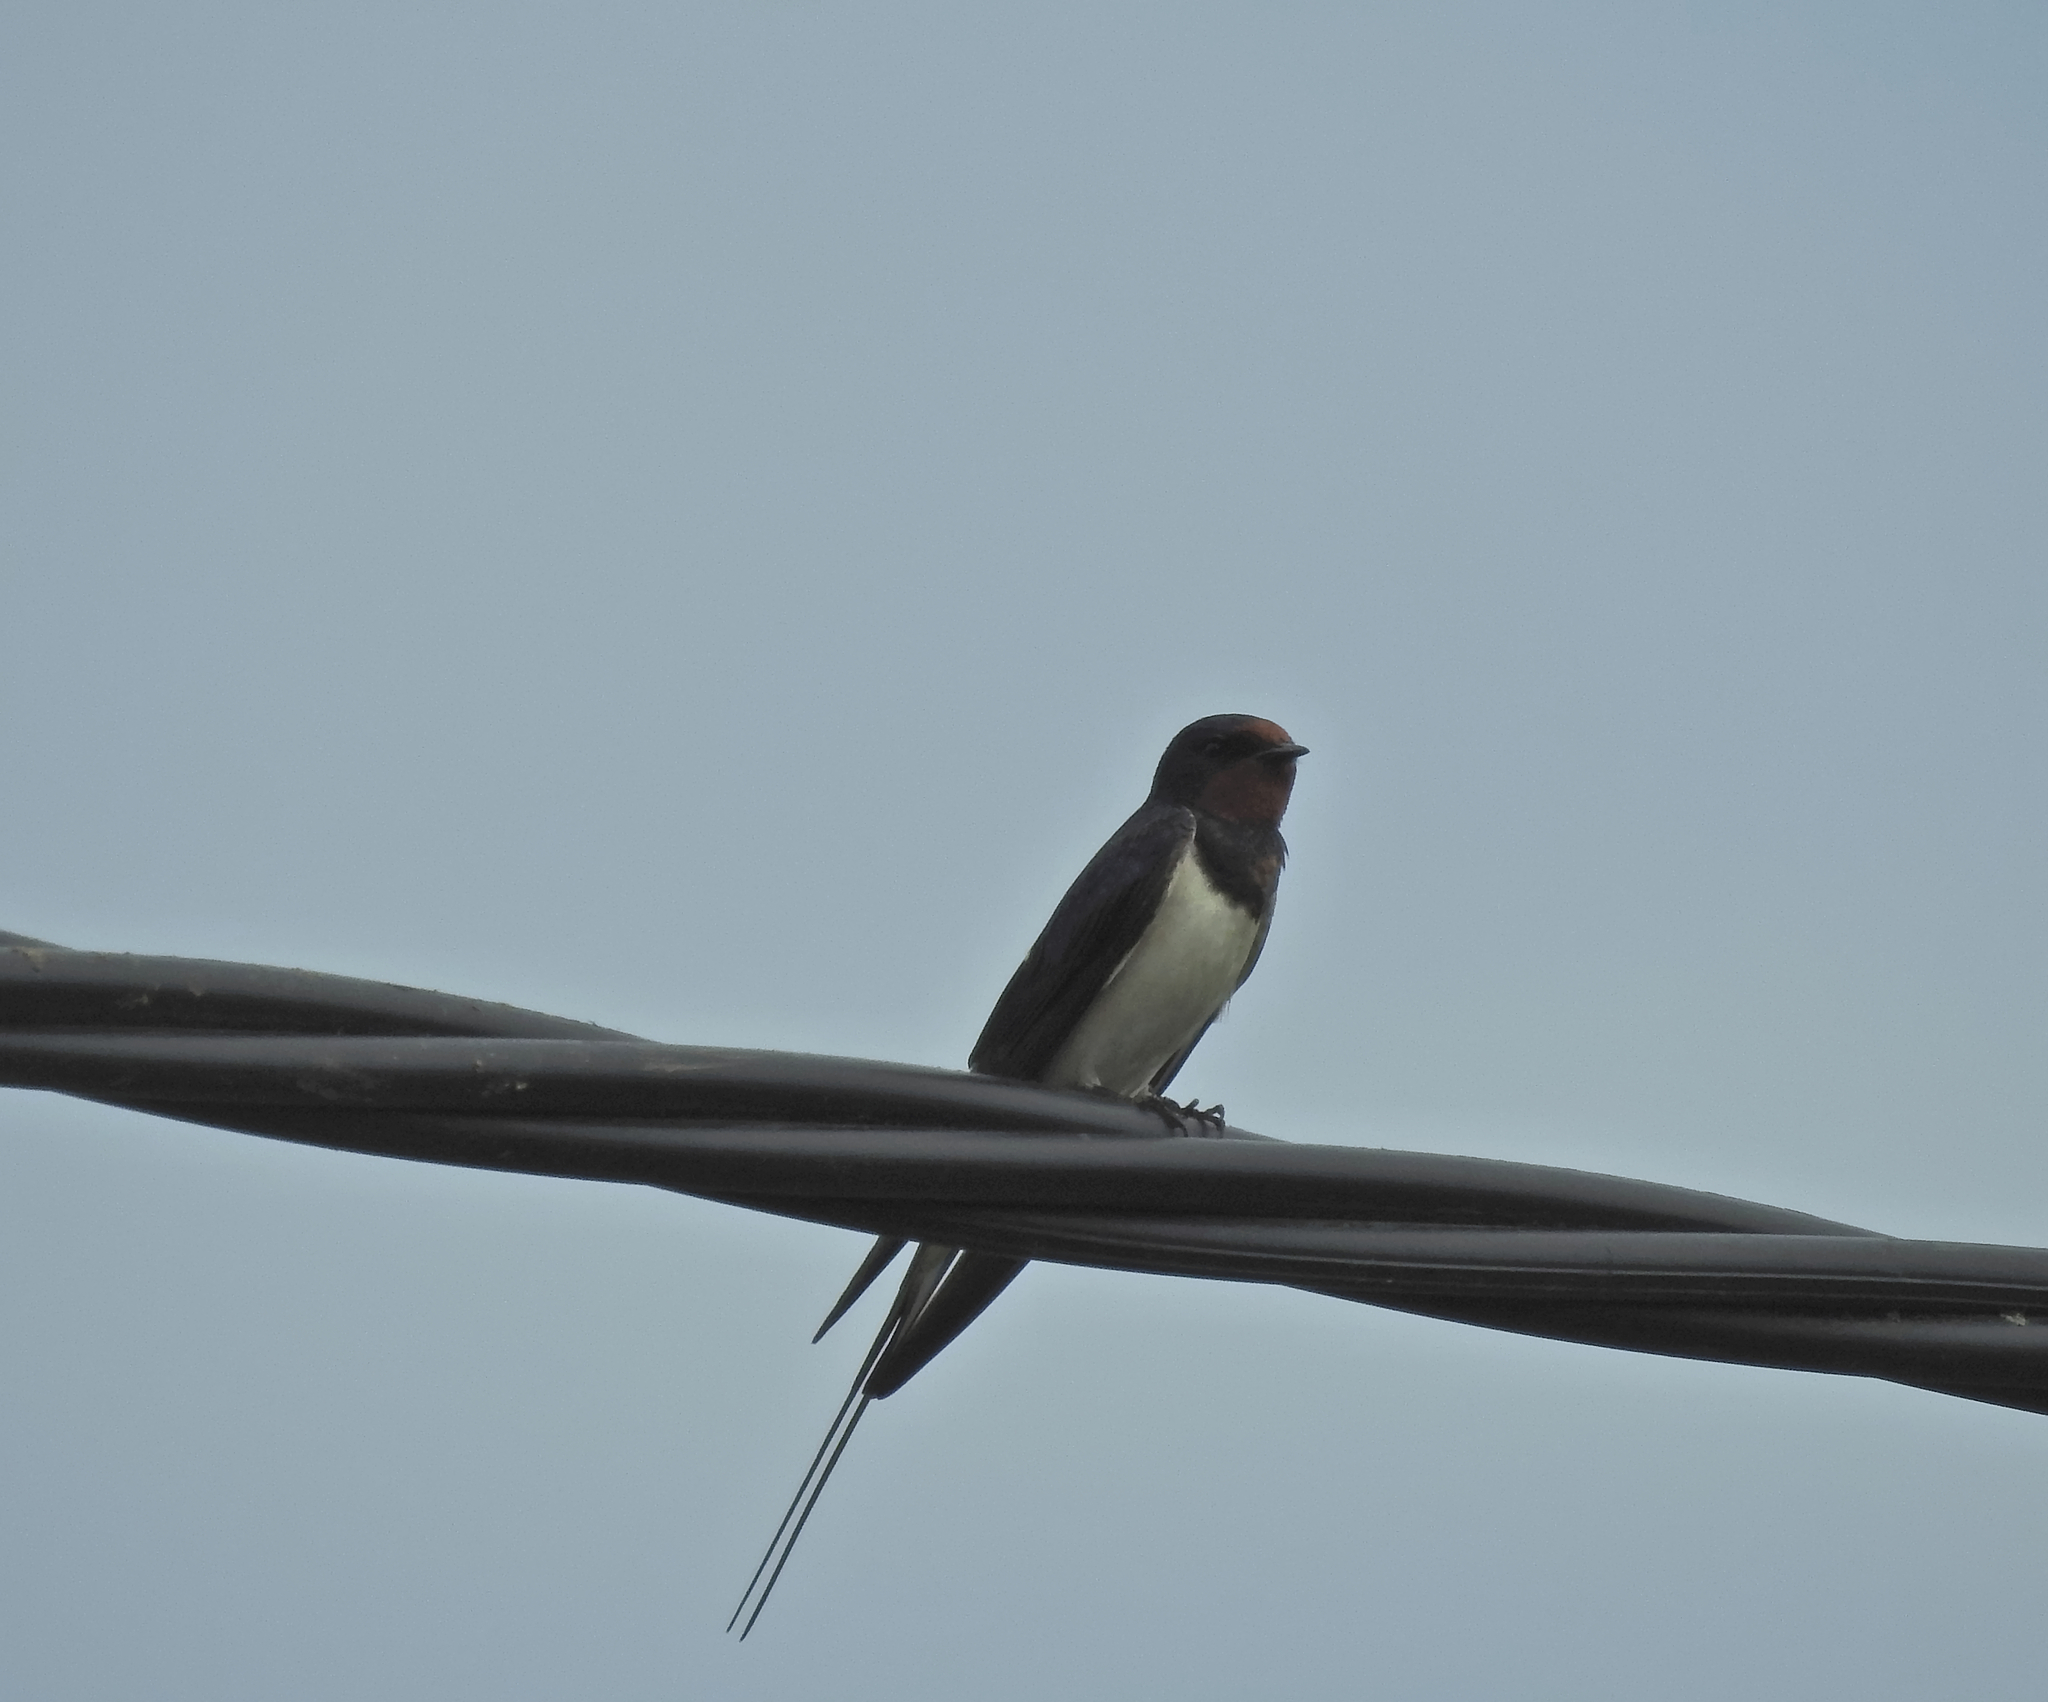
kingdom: Animalia
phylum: Chordata
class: Aves
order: Passeriformes
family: Hirundinidae
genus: Hirundo
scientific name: Hirundo rustica
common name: Barn swallow
